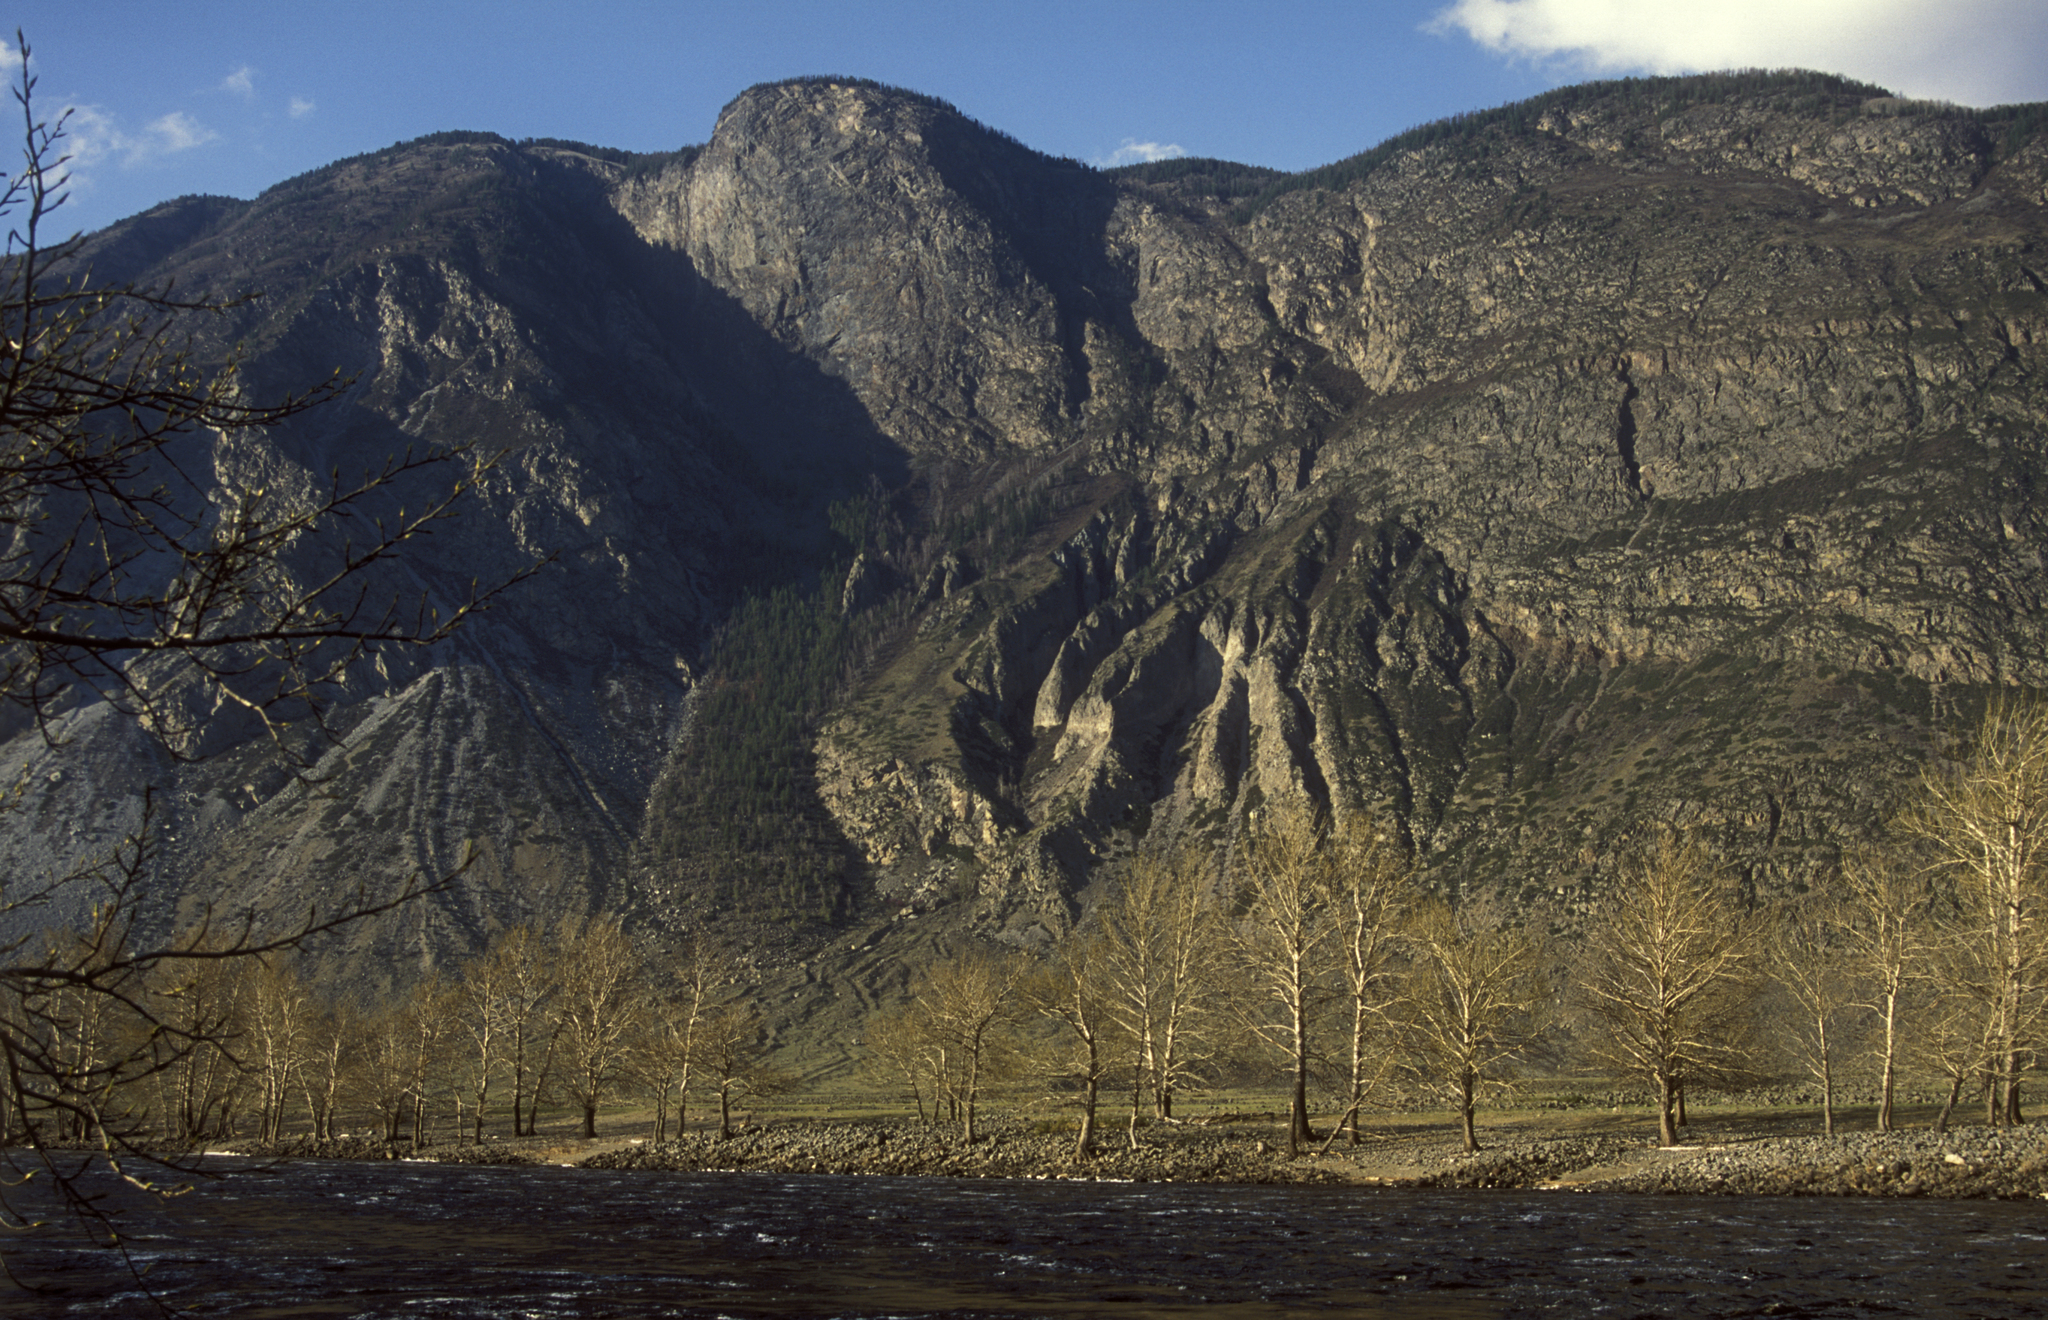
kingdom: Plantae
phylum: Tracheophyta
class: Magnoliopsida
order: Malpighiales
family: Salicaceae
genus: Populus
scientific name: Populus laurifolia
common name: Laurel-leaf poplar
